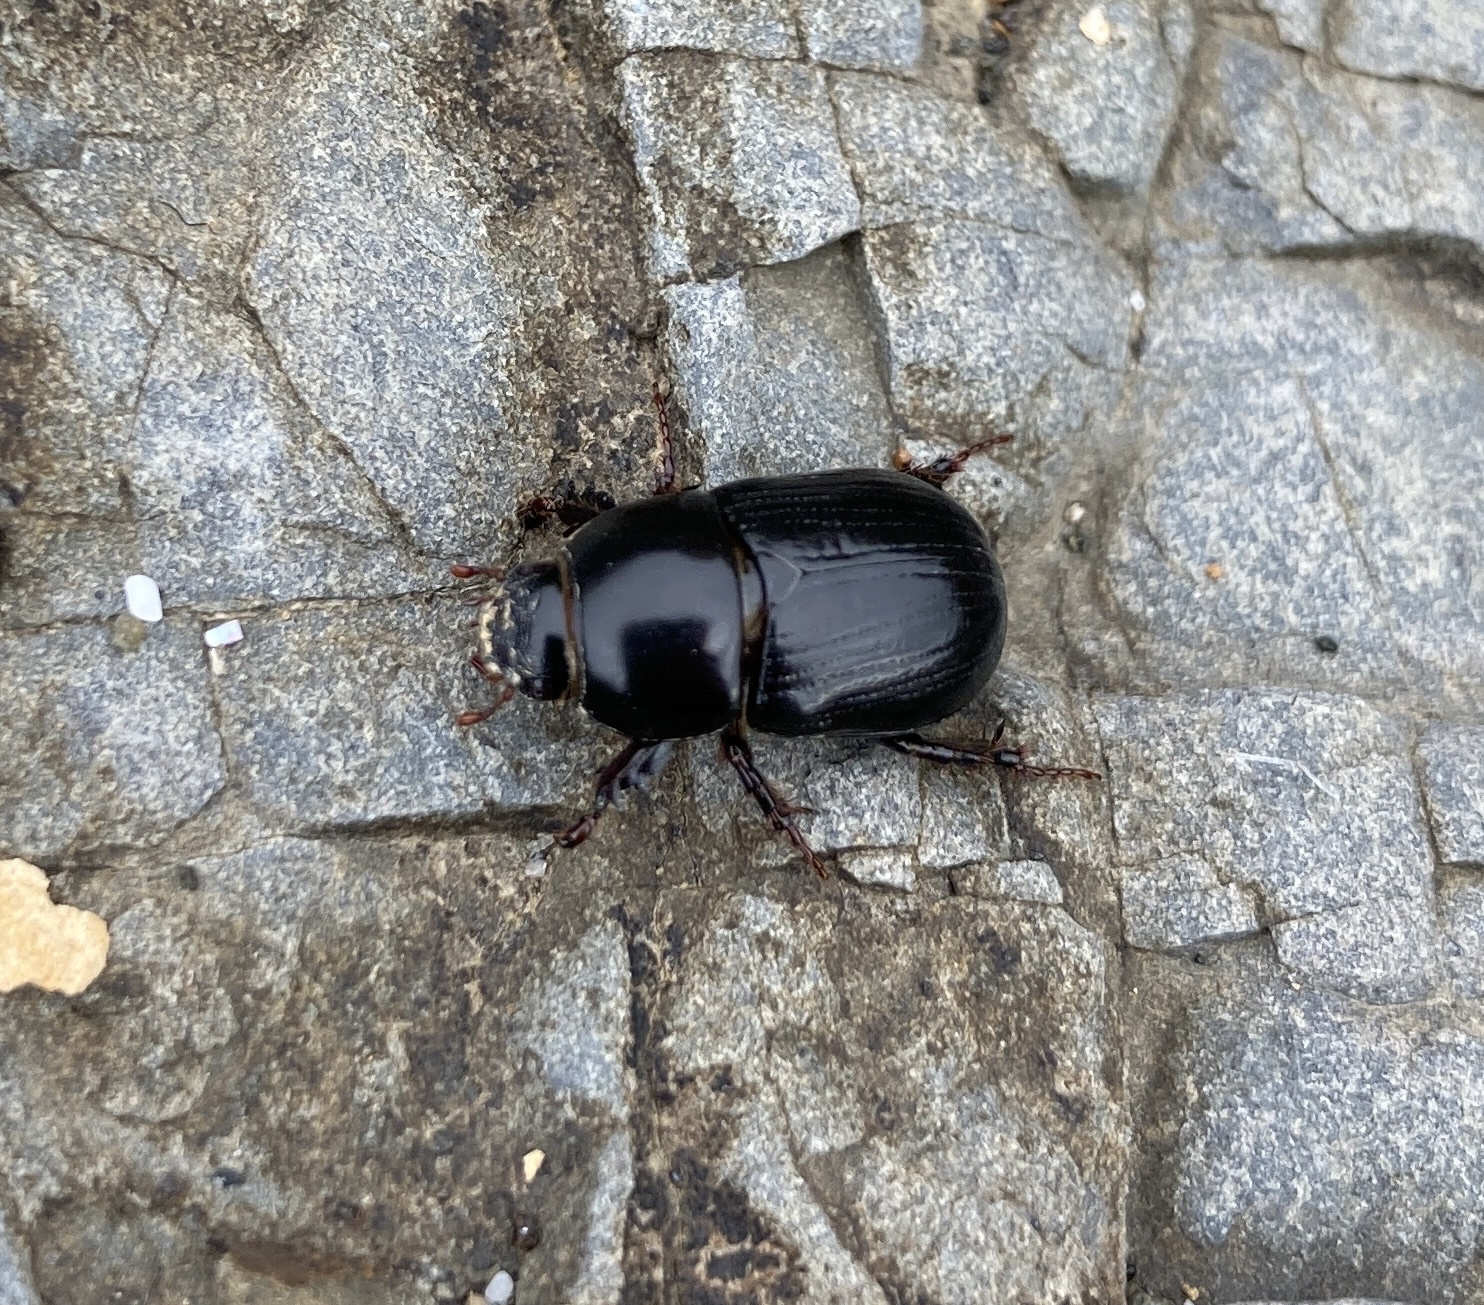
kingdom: Animalia
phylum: Arthropoda
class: Insecta
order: Coleoptera
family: Scarabaeidae
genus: Heteronychus
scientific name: Heteronychus arator
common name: African black beetle
